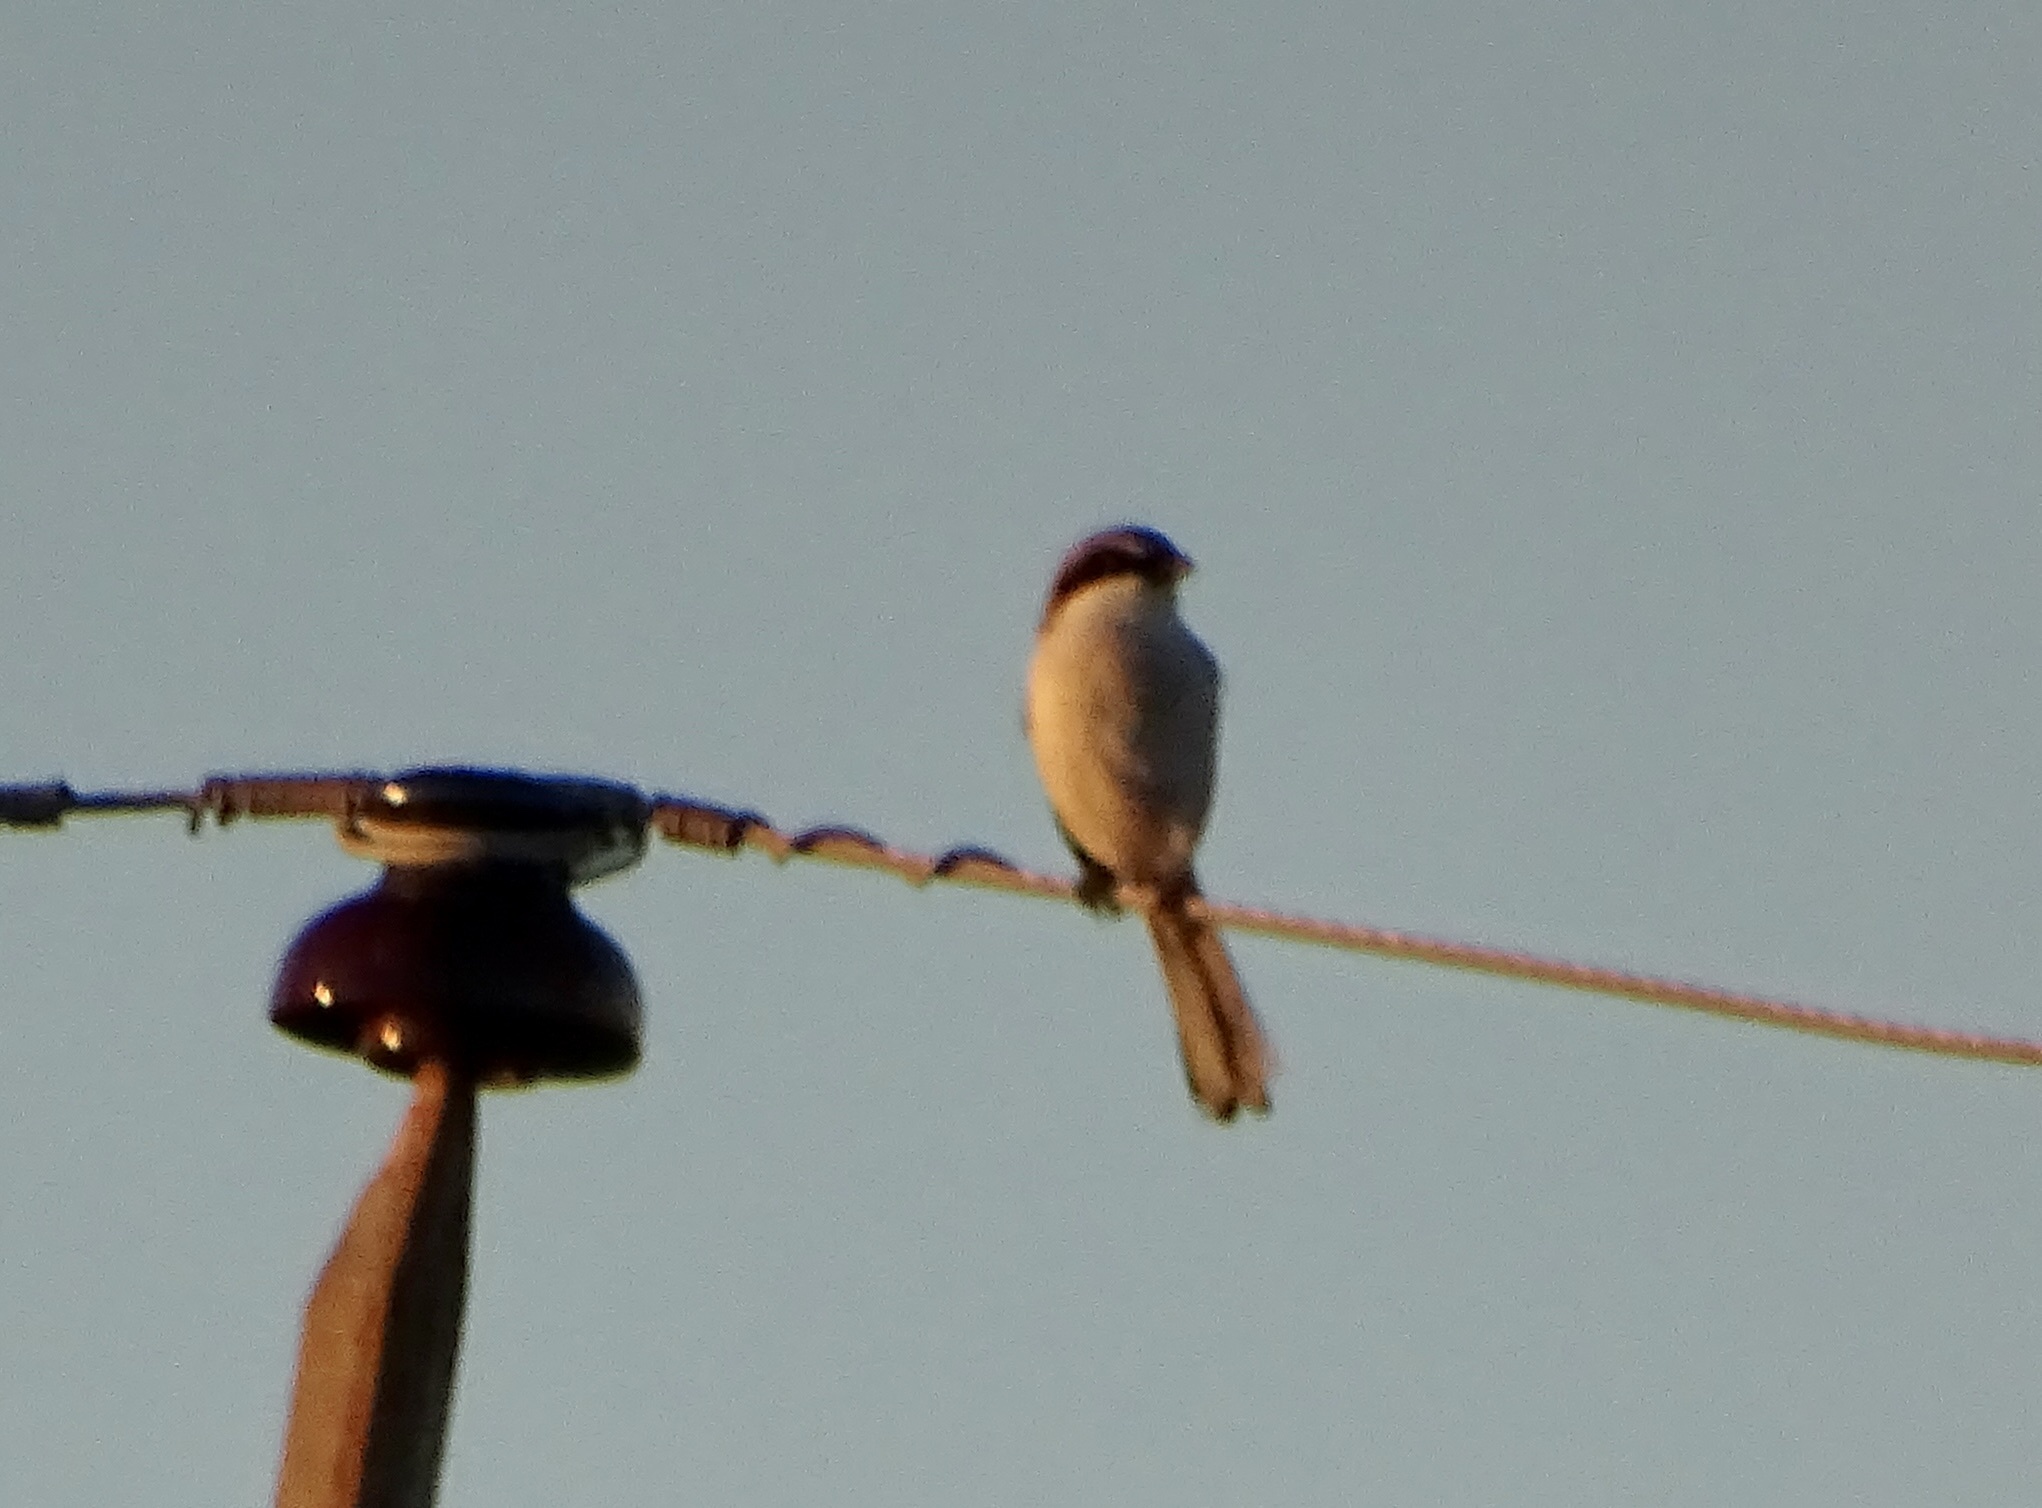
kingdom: Animalia
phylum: Chordata
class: Aves
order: Passeriformes
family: Laniidae
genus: Lanius
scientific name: Lanius ludovicianus
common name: Loggerhead shrike
